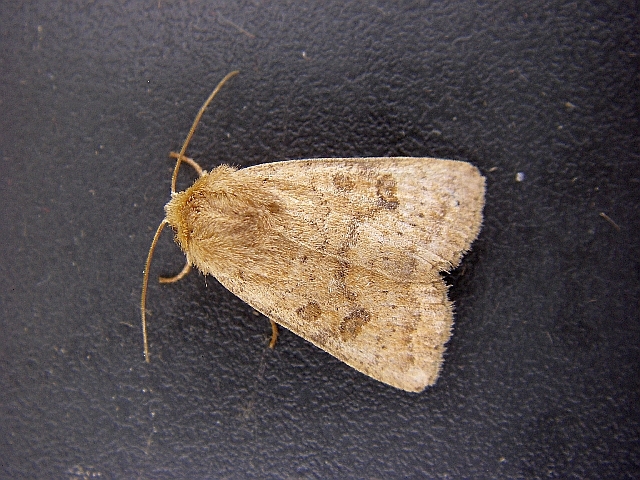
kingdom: Animalia
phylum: Arthropoda
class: Insecta
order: Lepidoptera
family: Noctuidae
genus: Hoplodrina
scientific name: Hoplodrina octogenaria
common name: Uncertain
